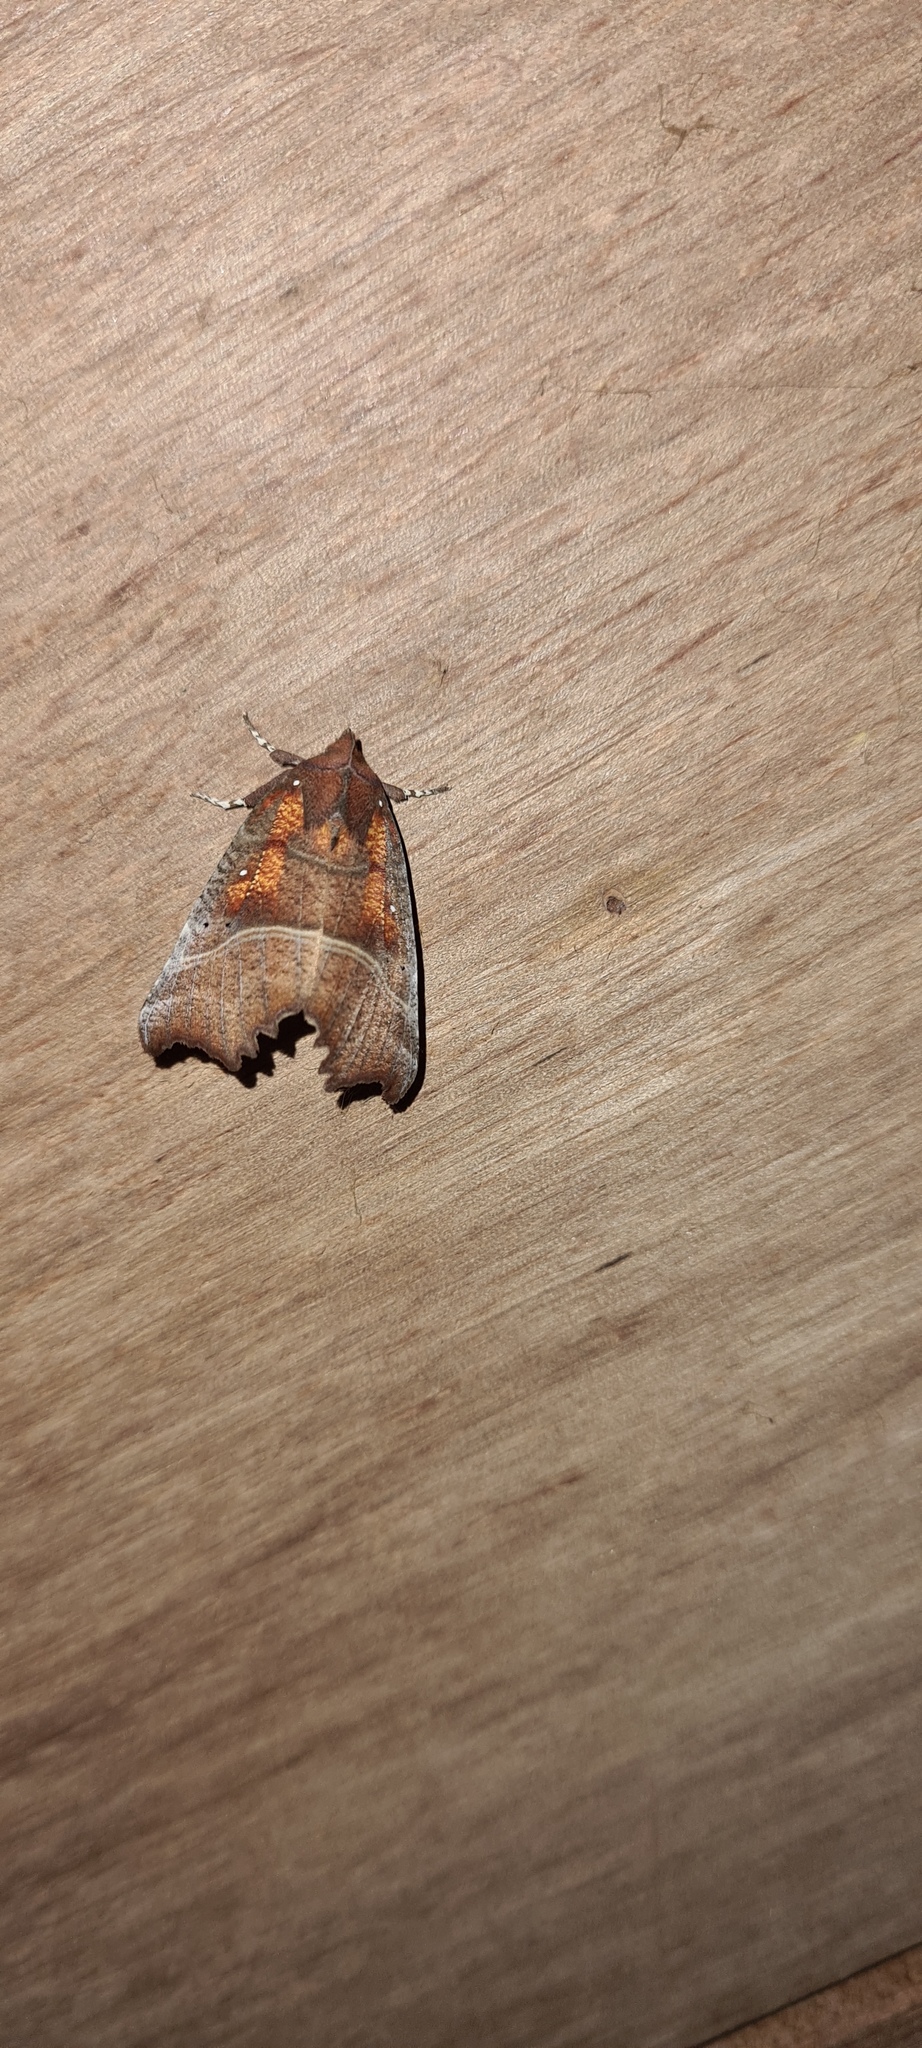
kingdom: Animalia
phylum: Arthropoda
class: Insecta
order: Lepidoptera
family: Erebidae
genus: Scoliopteryx
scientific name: Scoliopteryx libatrix
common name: Herald
